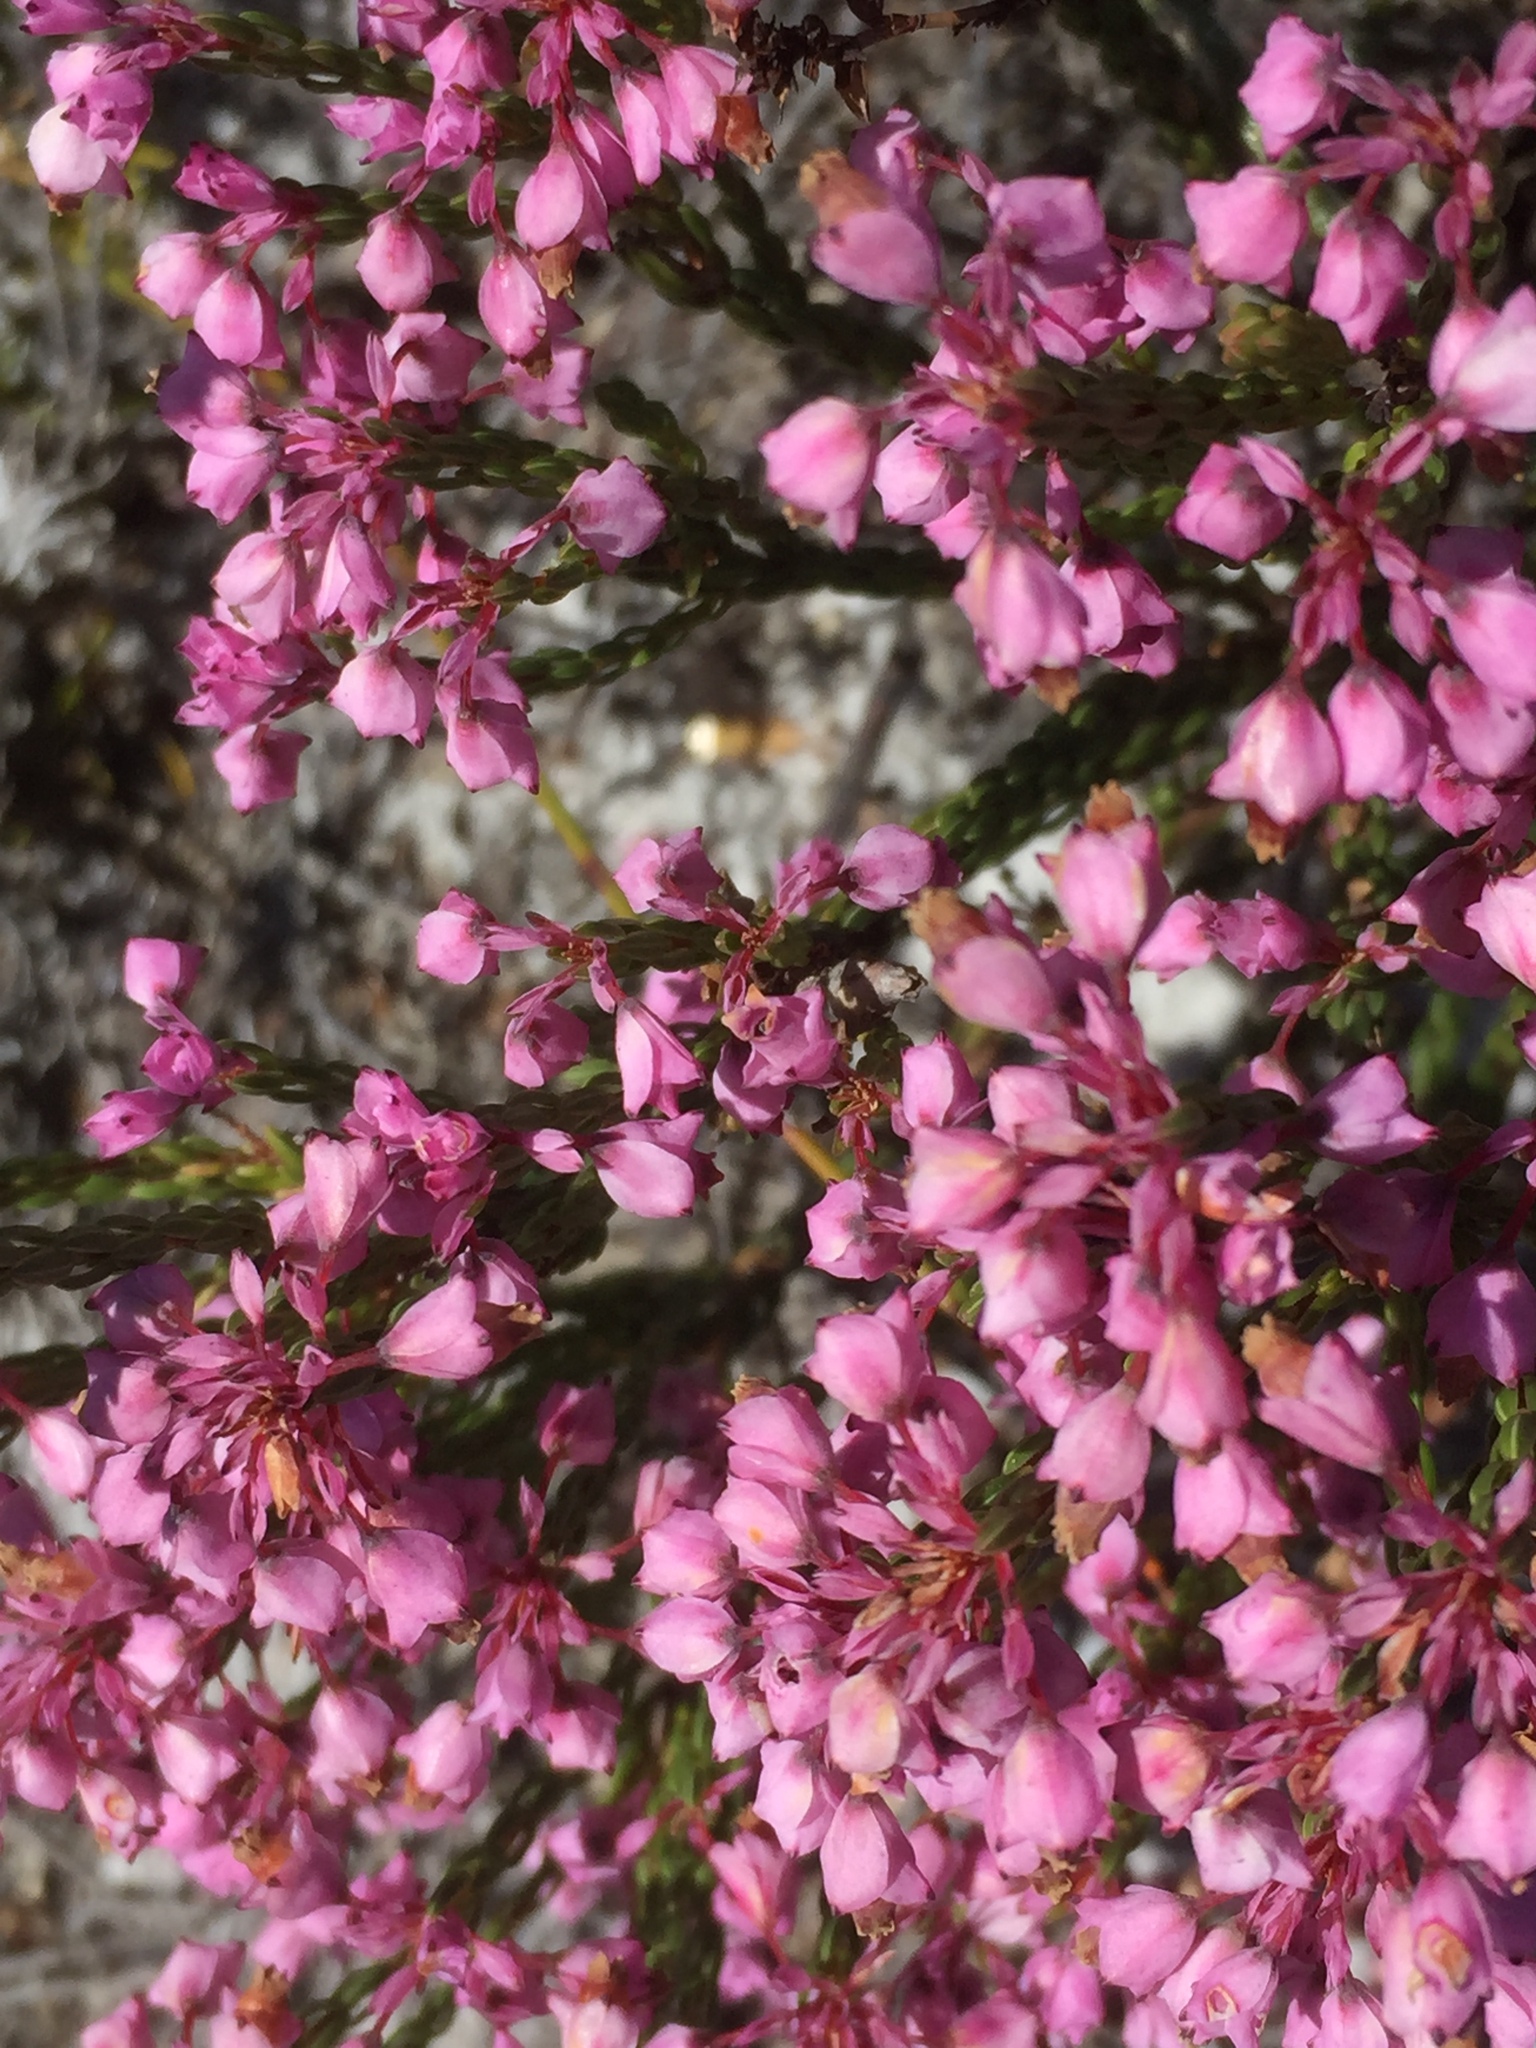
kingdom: Plantae
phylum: Tracheophyta
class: Magnoliopsida
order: Ericales
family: Ericaceae
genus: Erica
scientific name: Erica corifolia
